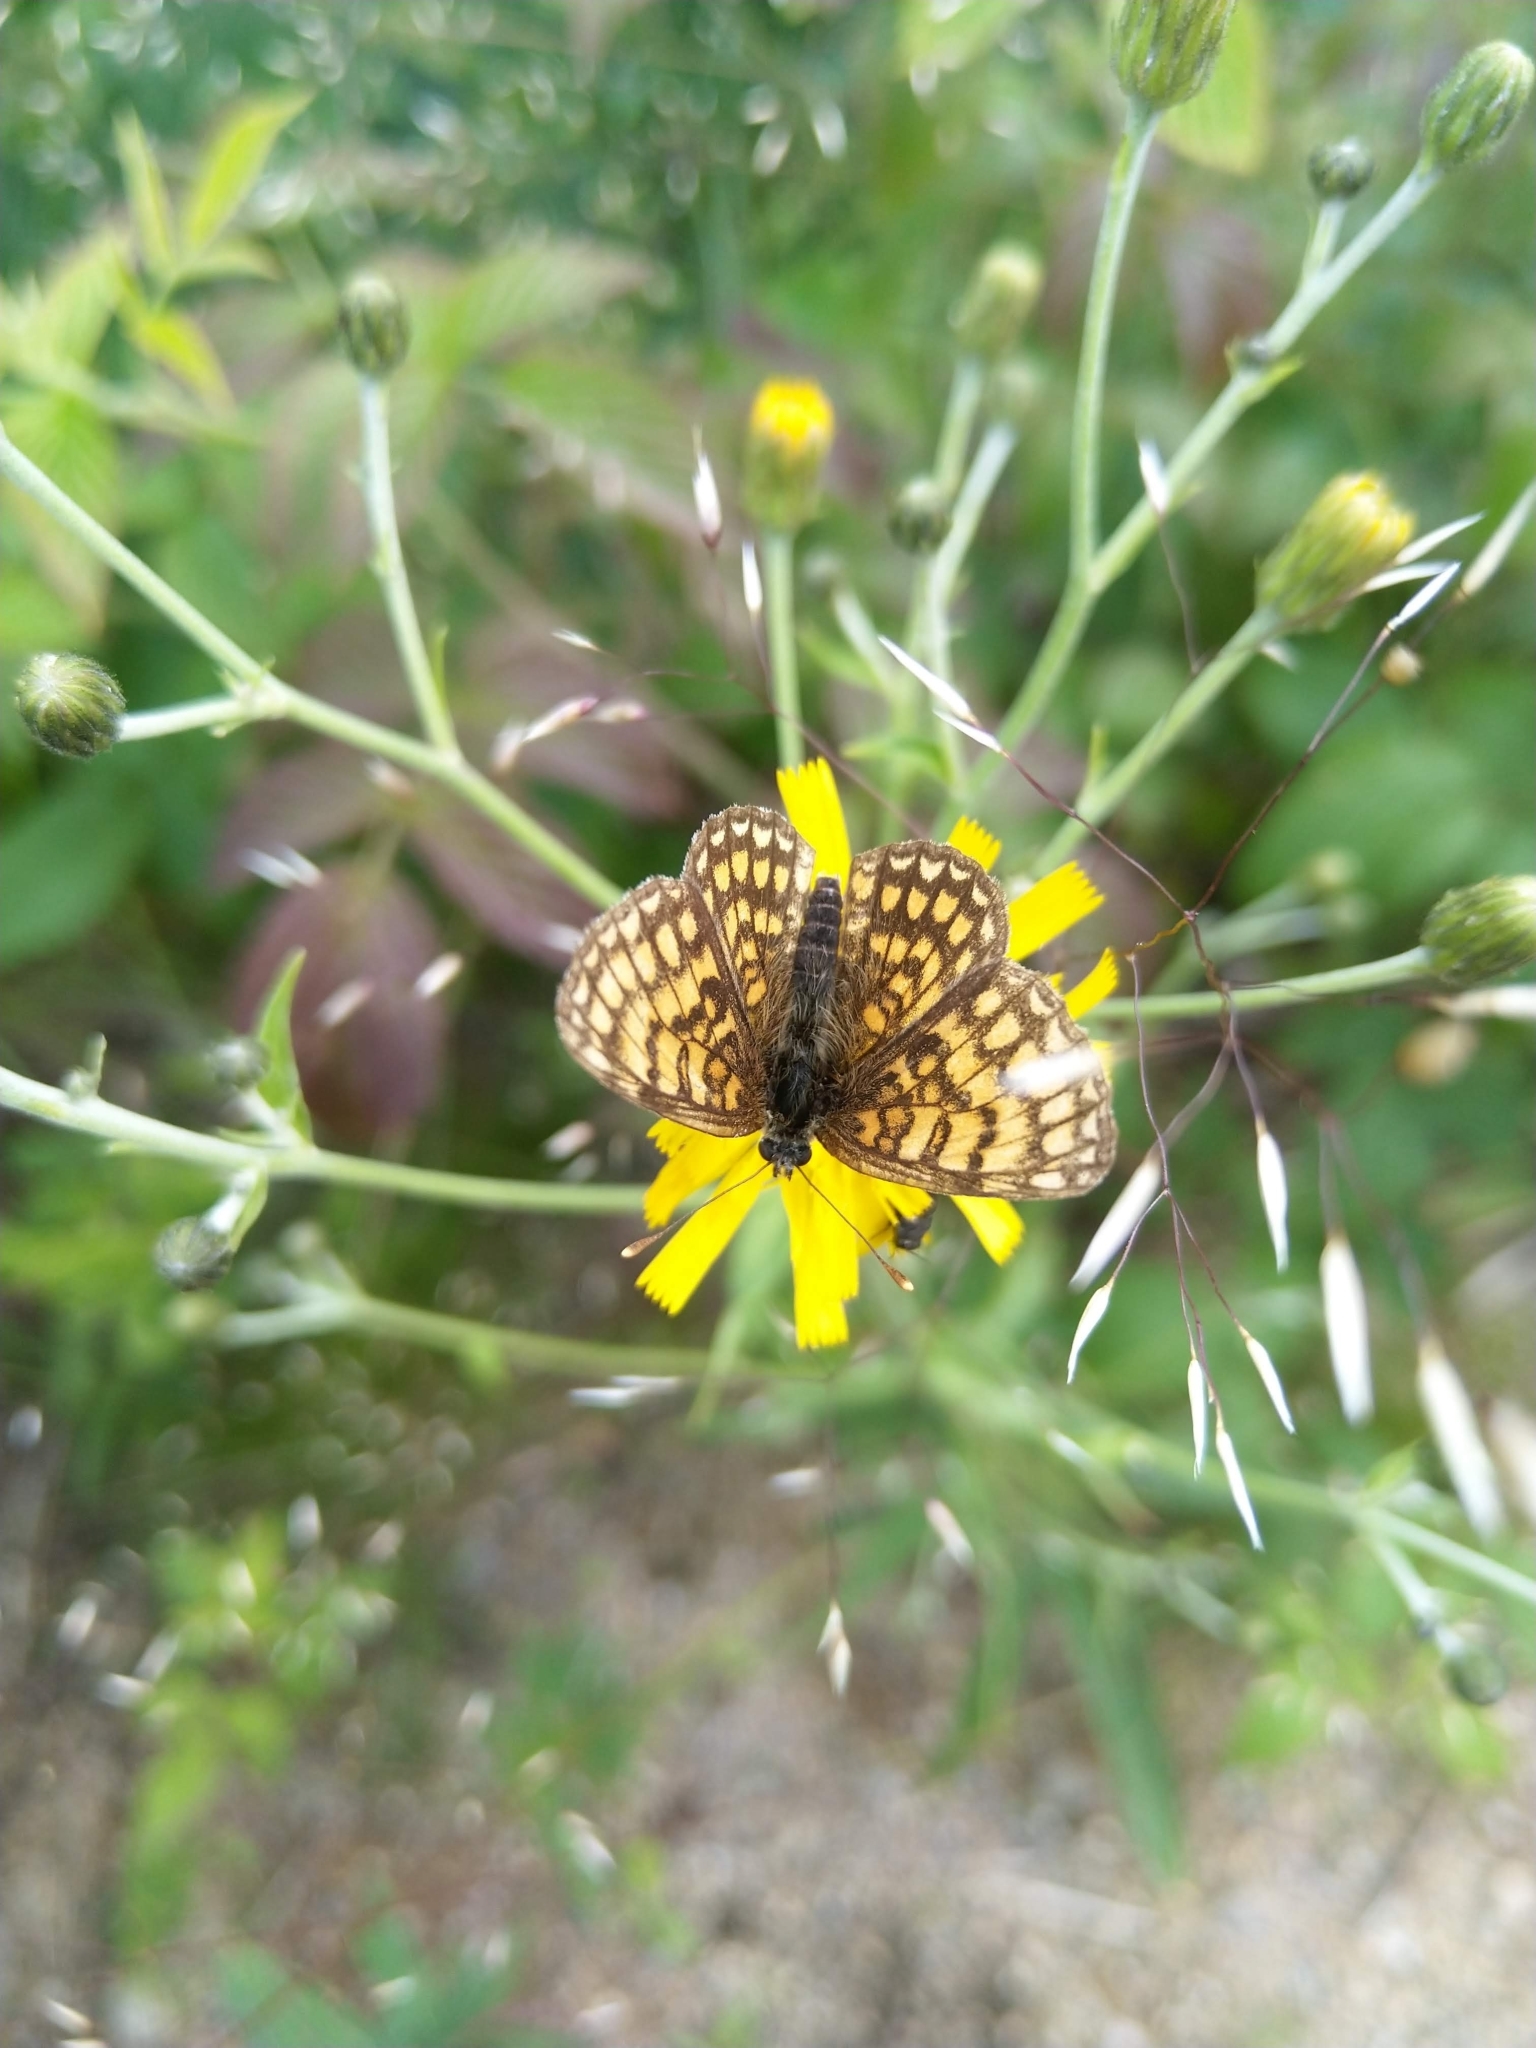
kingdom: Animalia
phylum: Arthropoda
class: Insecta
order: Lepidoptera
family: Nymphalidae
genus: Melitaea
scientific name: Melitaea athalia
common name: Heath fritillary
